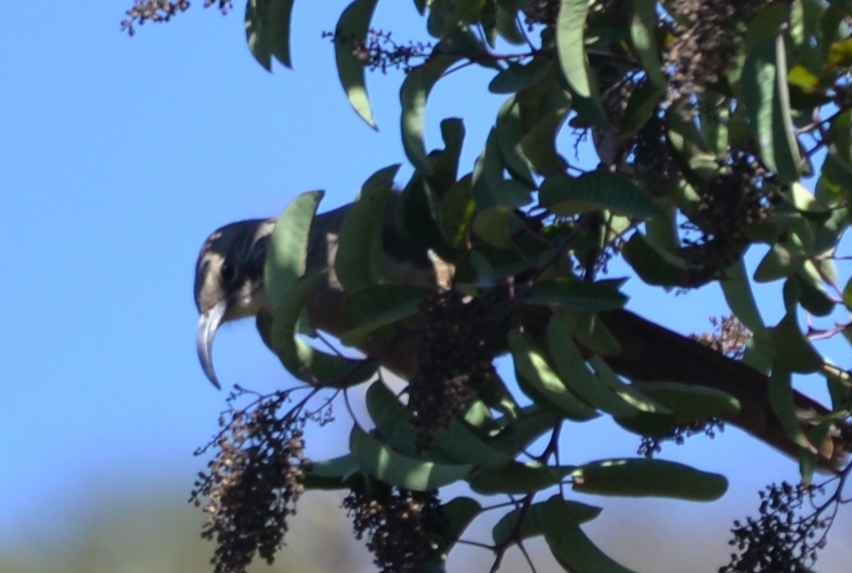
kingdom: Animalia
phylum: Chordata
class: Aves
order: Passeriformes
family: Mimidae
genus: Toxostoma
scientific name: Toxostoma redivivum
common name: California thrasher
